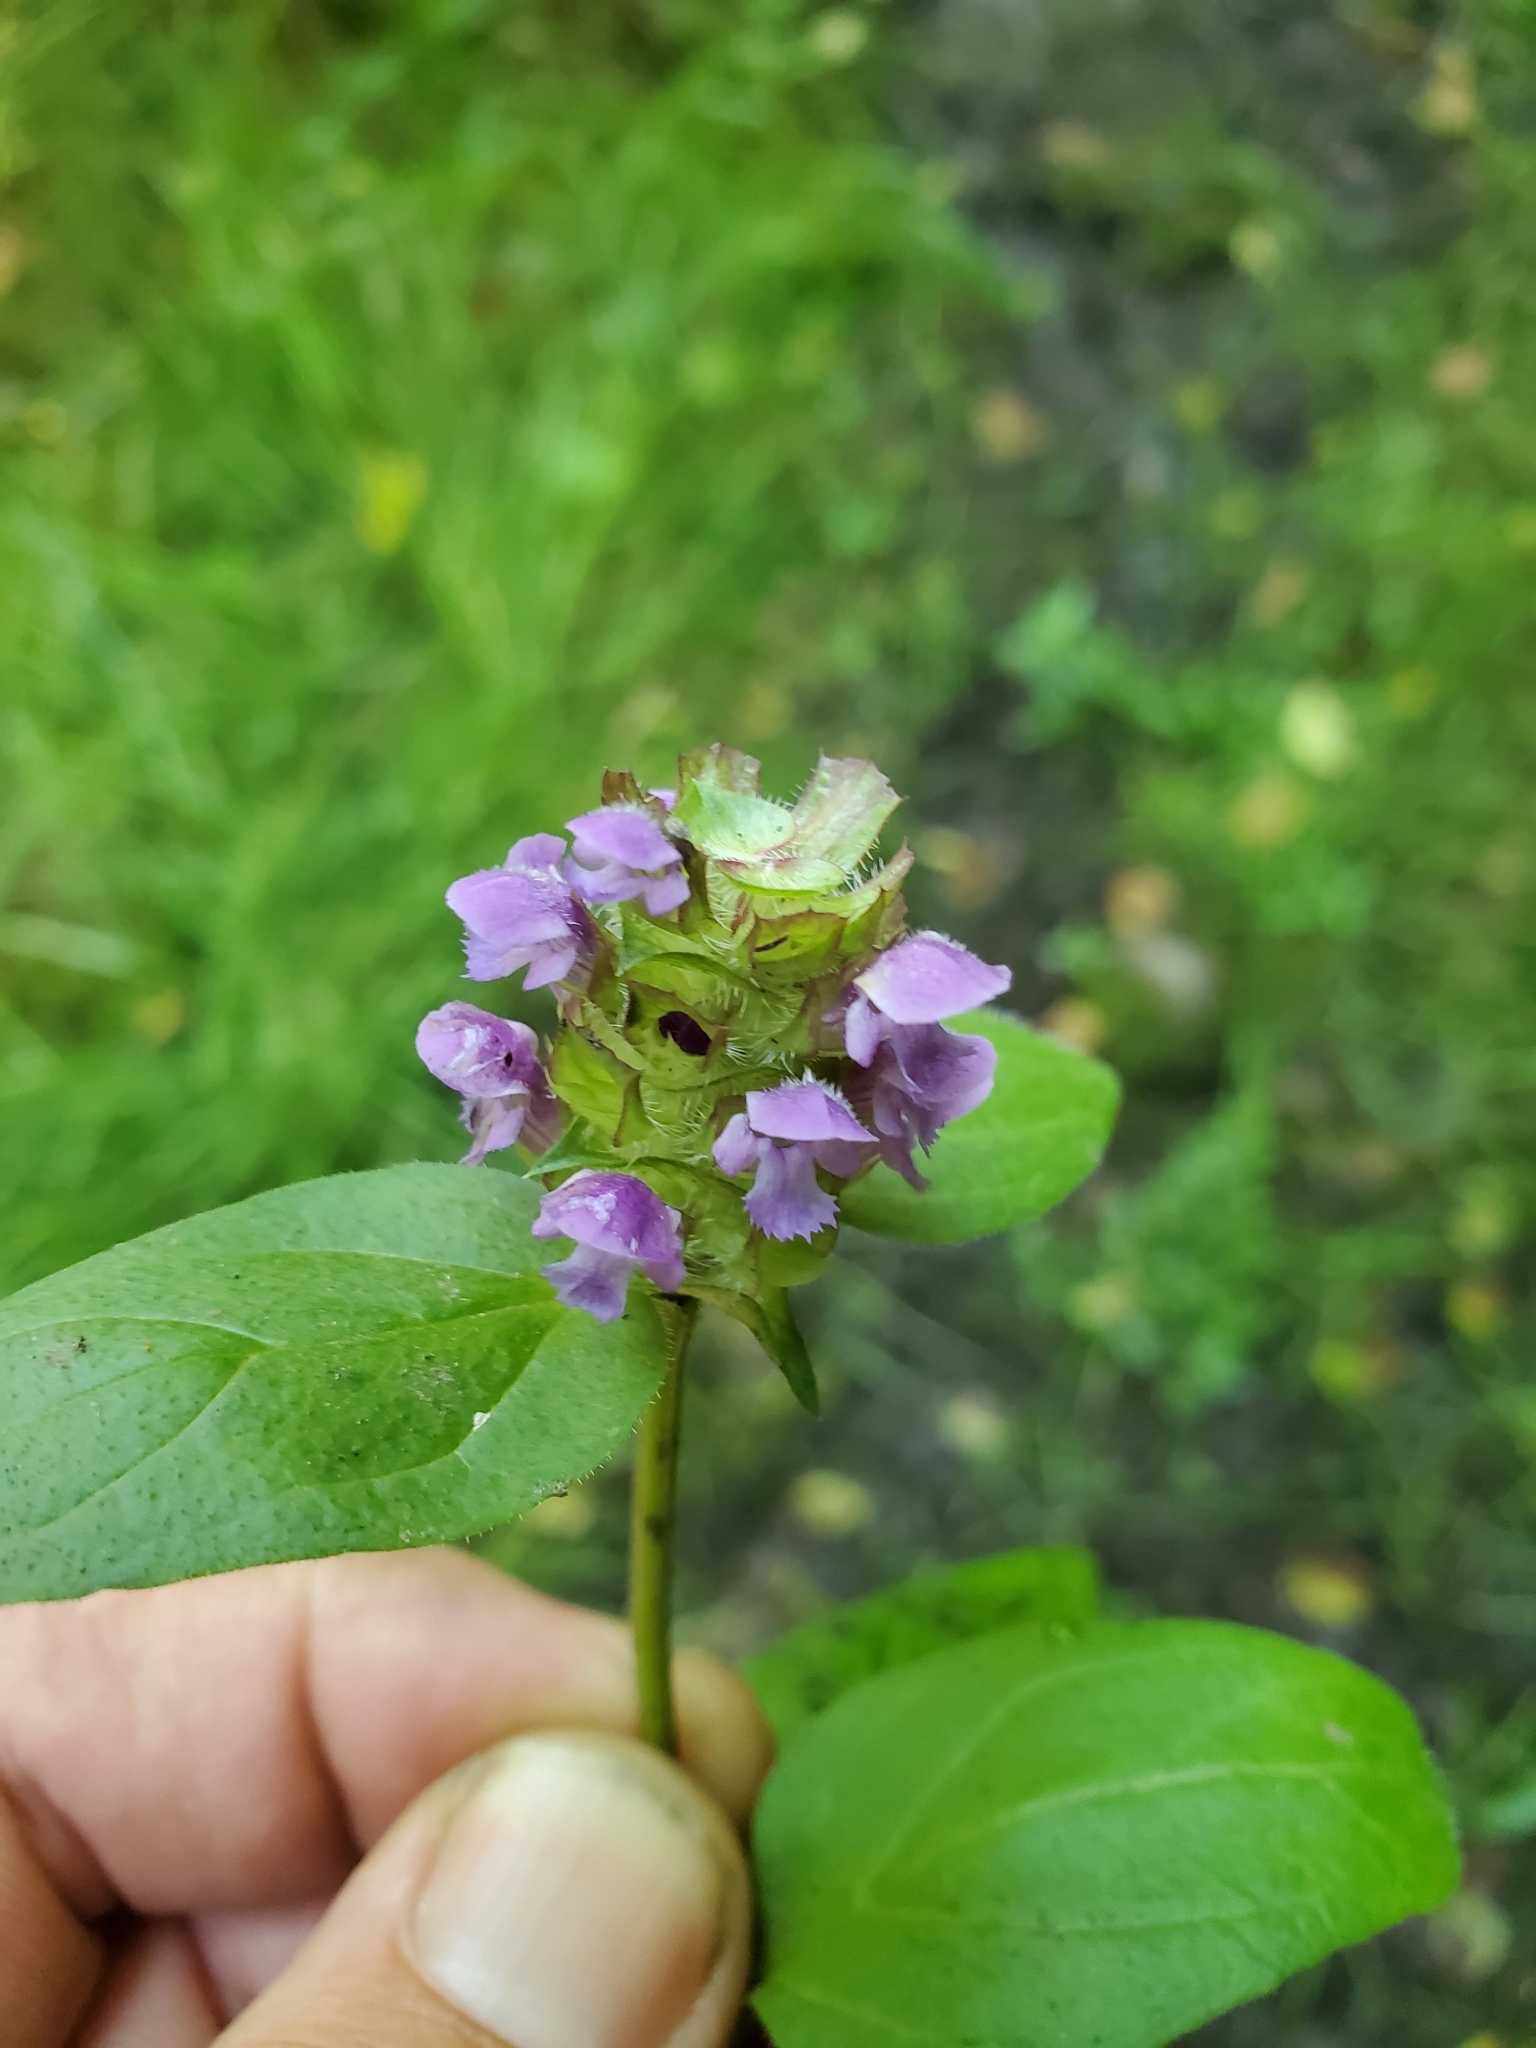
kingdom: Plantae
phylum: Tracheophyta
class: Magnoliopsida
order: Lamiales
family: Lamiaceae
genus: Prunella
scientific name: Prunella vulgaris
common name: Heal-all
